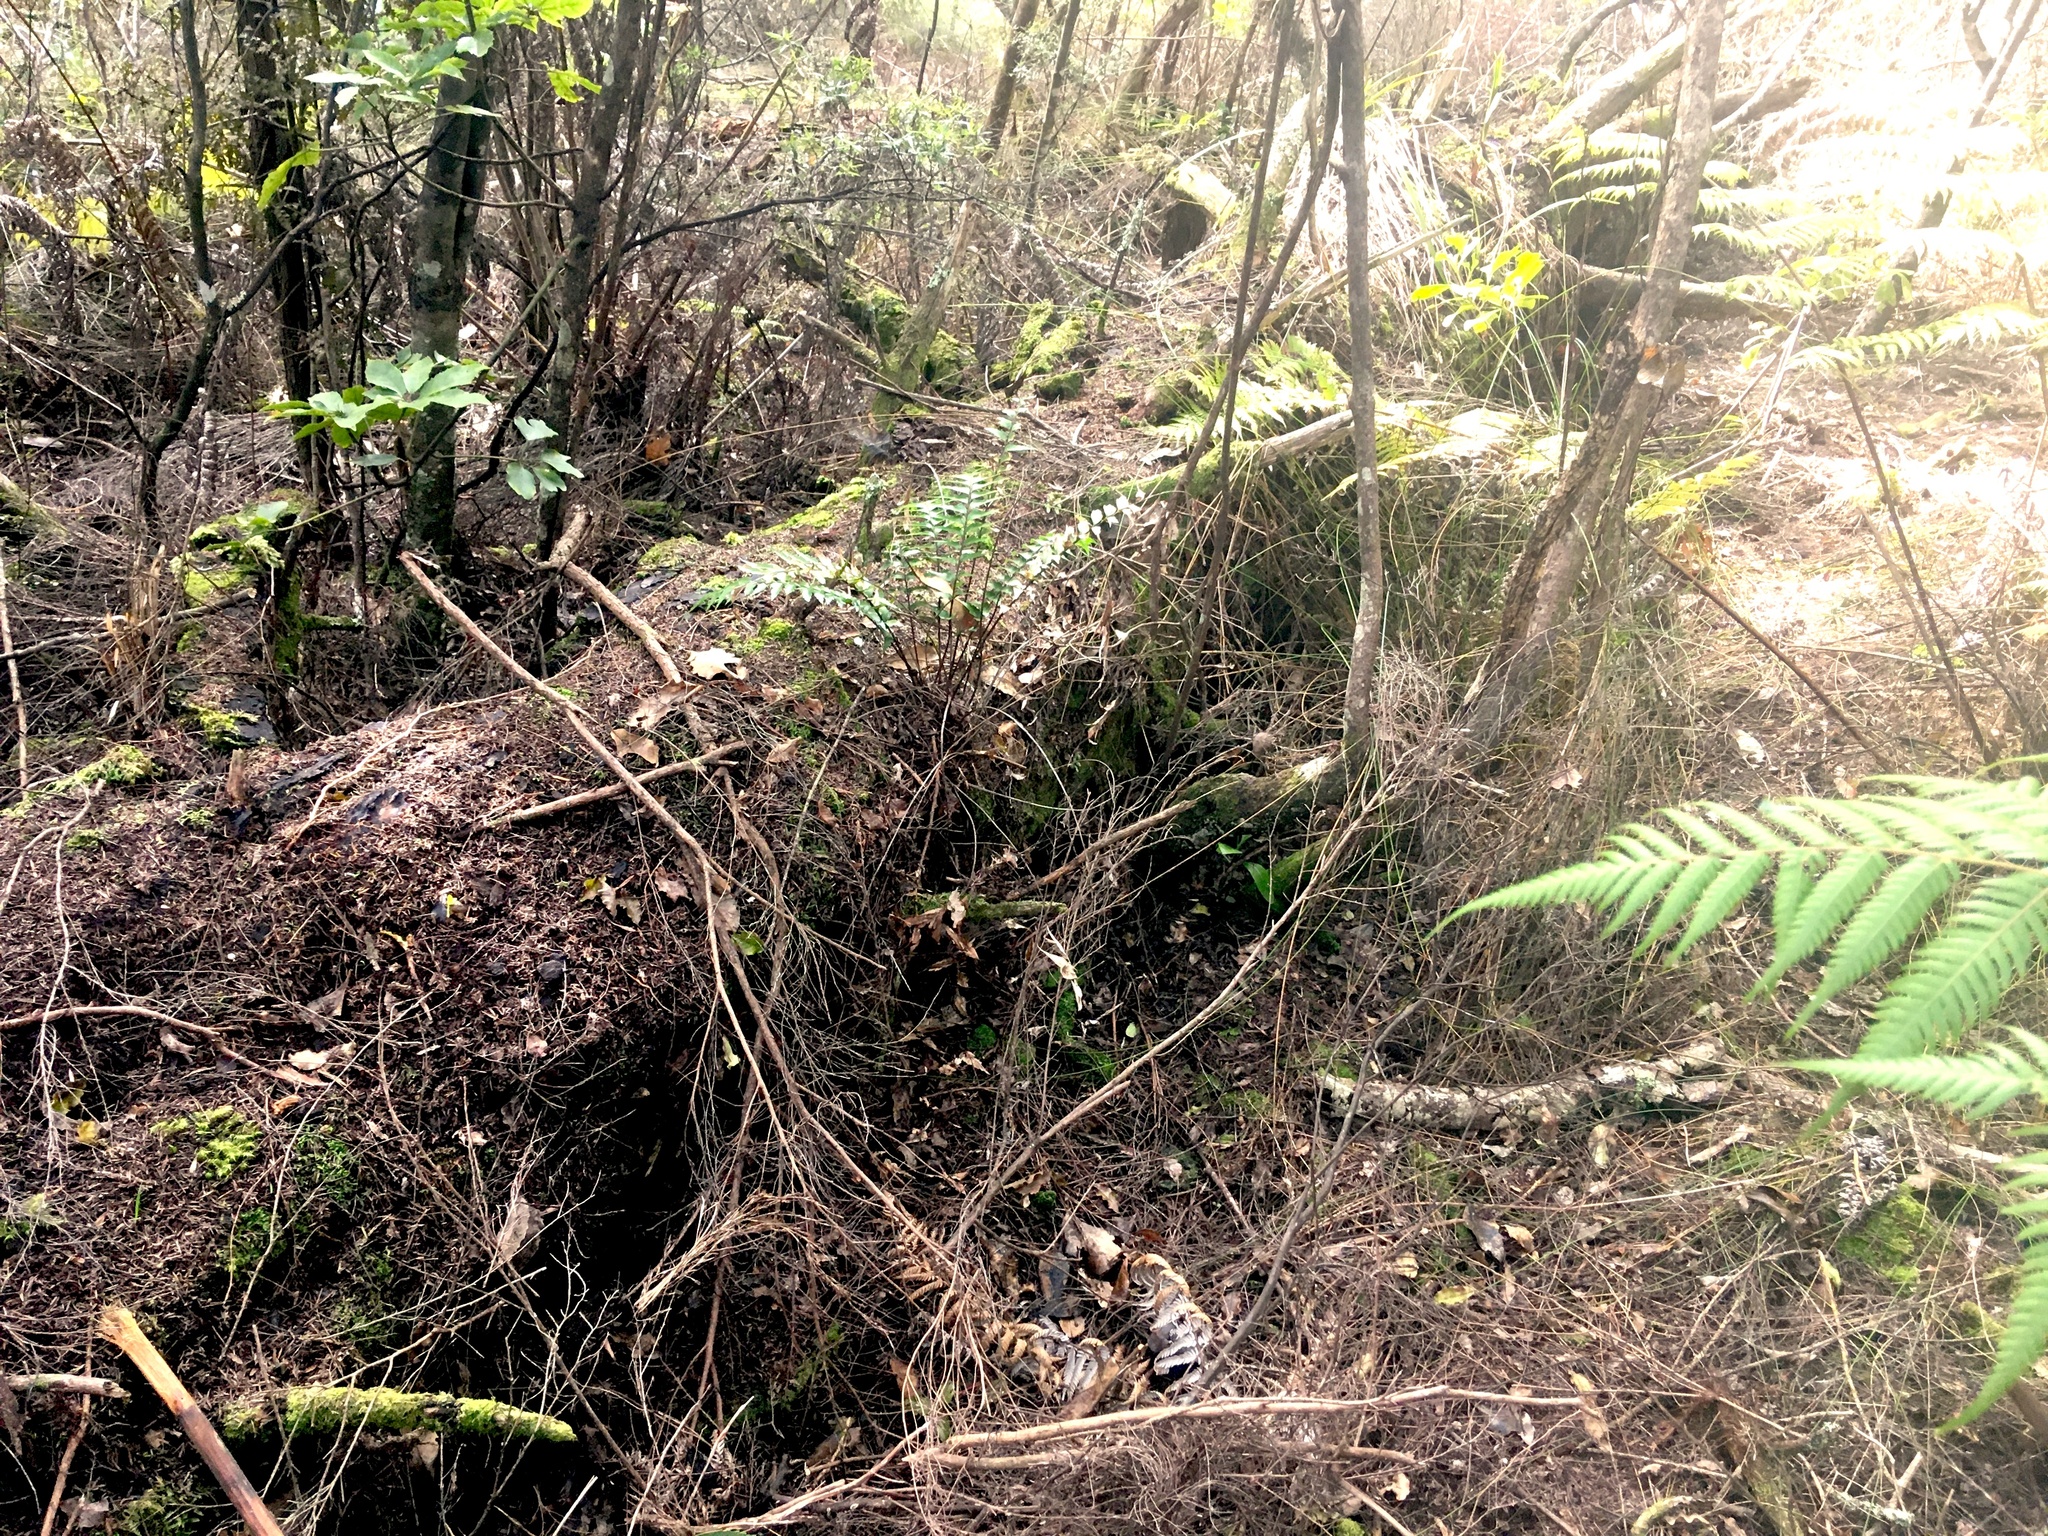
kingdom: Plantae
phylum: Tracheophyta
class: Polypodiopsida
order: Polypodiales
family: Aspleniaceae
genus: Asplenium
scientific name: Asplenium polyodon
